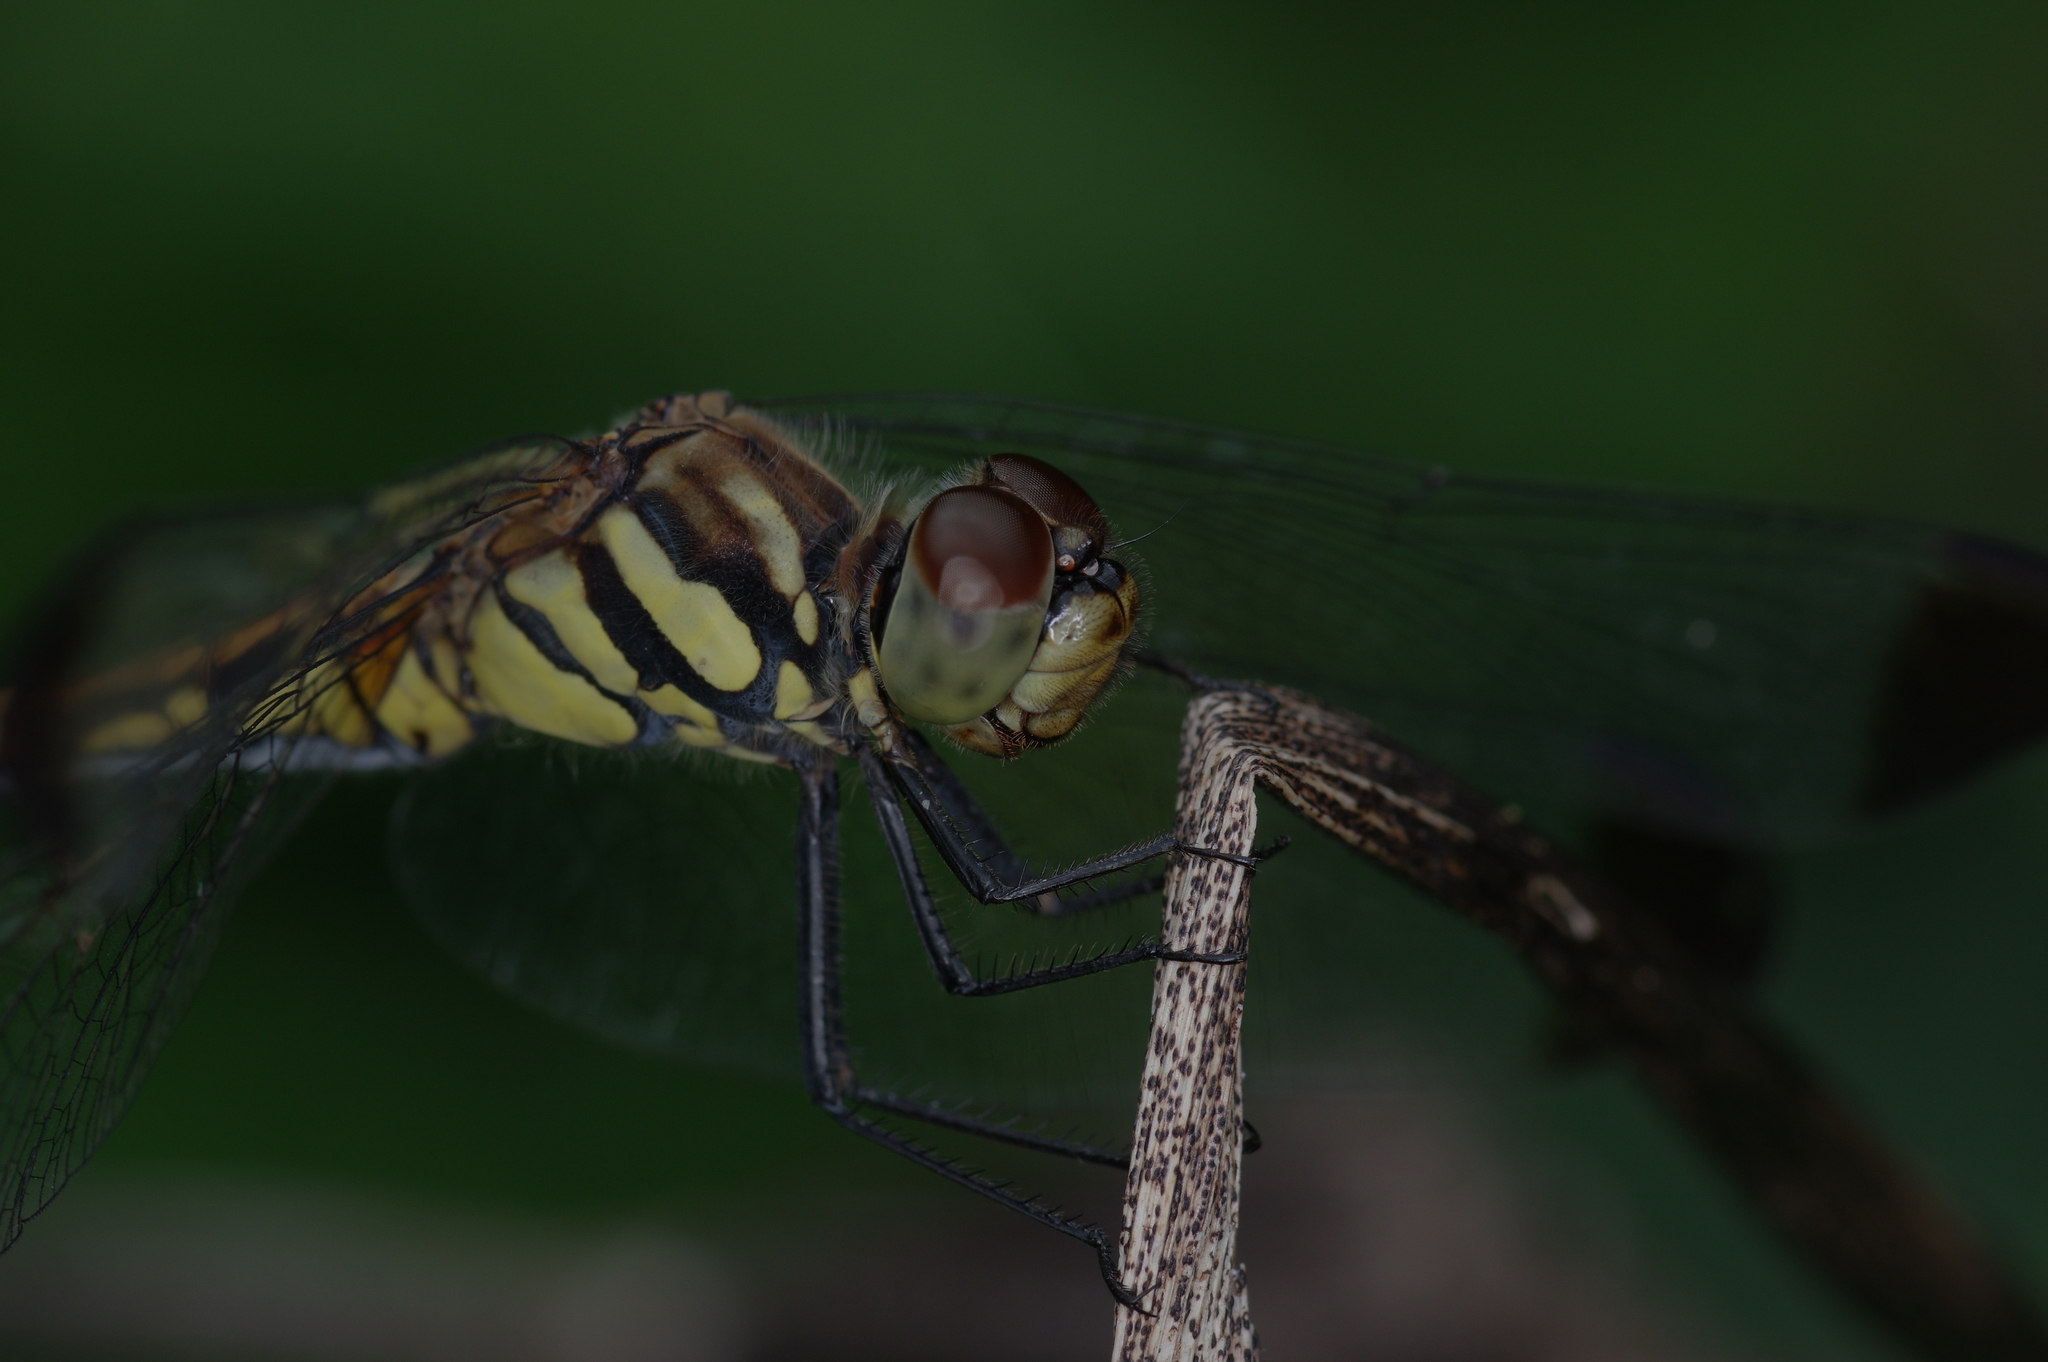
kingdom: Animalia
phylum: Arthropoda
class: Insecta
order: Odonata
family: Libellulidae
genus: Sympetrum
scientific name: Sympetrum infuscatum
